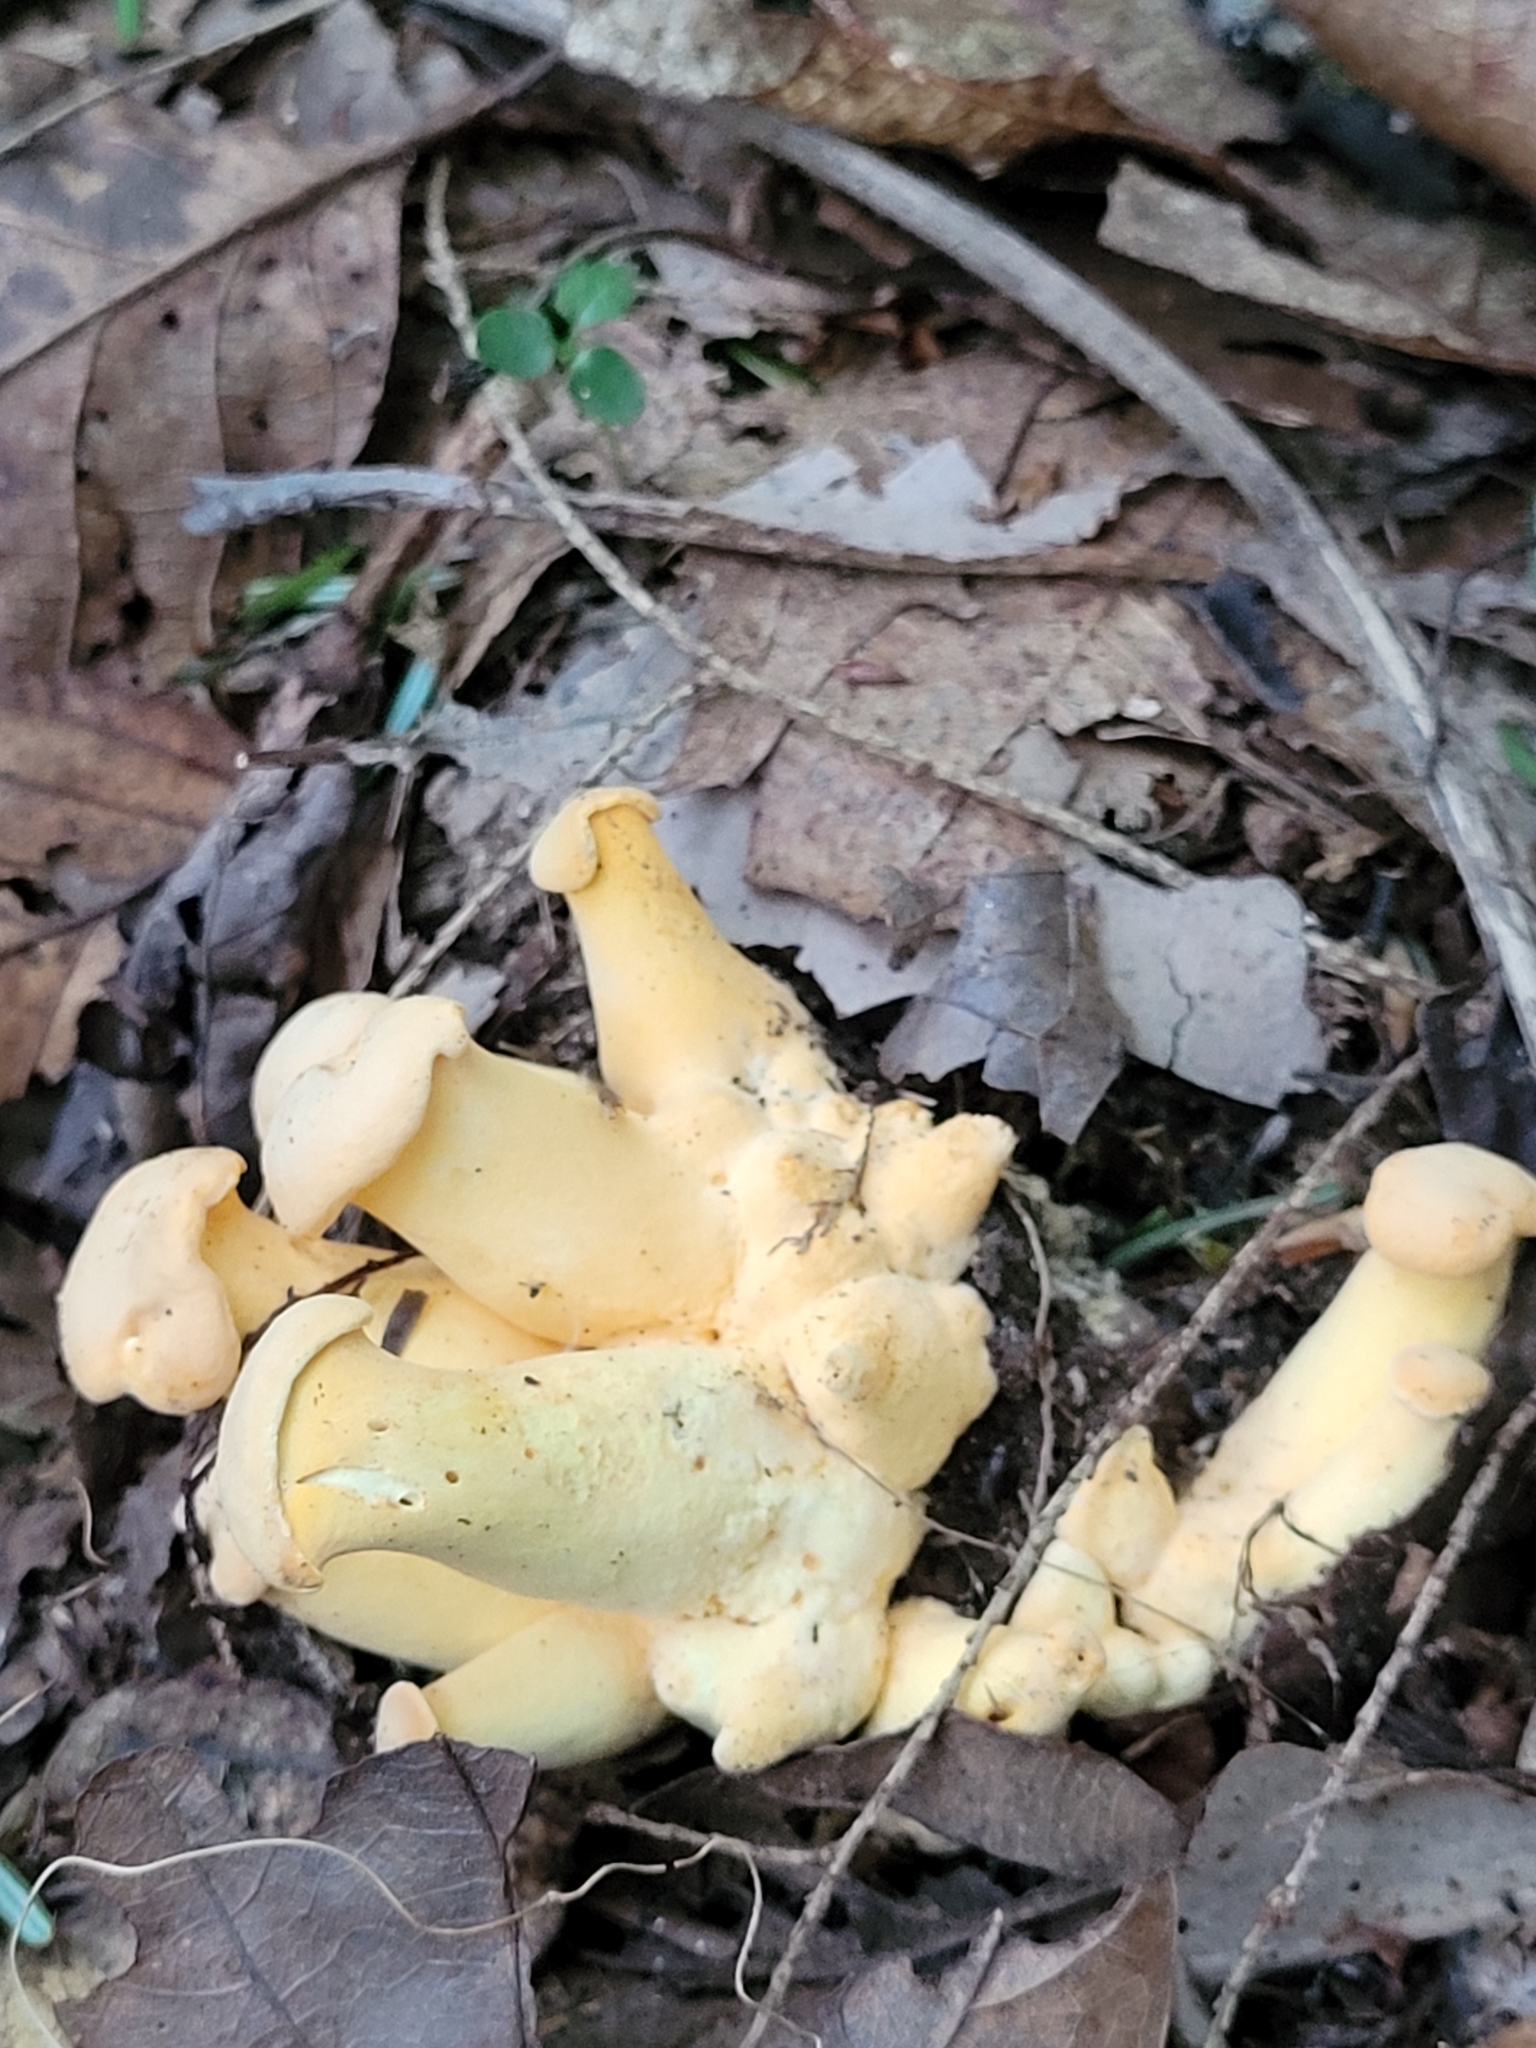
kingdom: Fungi
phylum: Basidiomycota
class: Agaricomycetes
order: Cantharellales
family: Hydnaceae
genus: Cantharellus
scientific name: Cantharellus lateritius
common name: Smooth chanterelle
